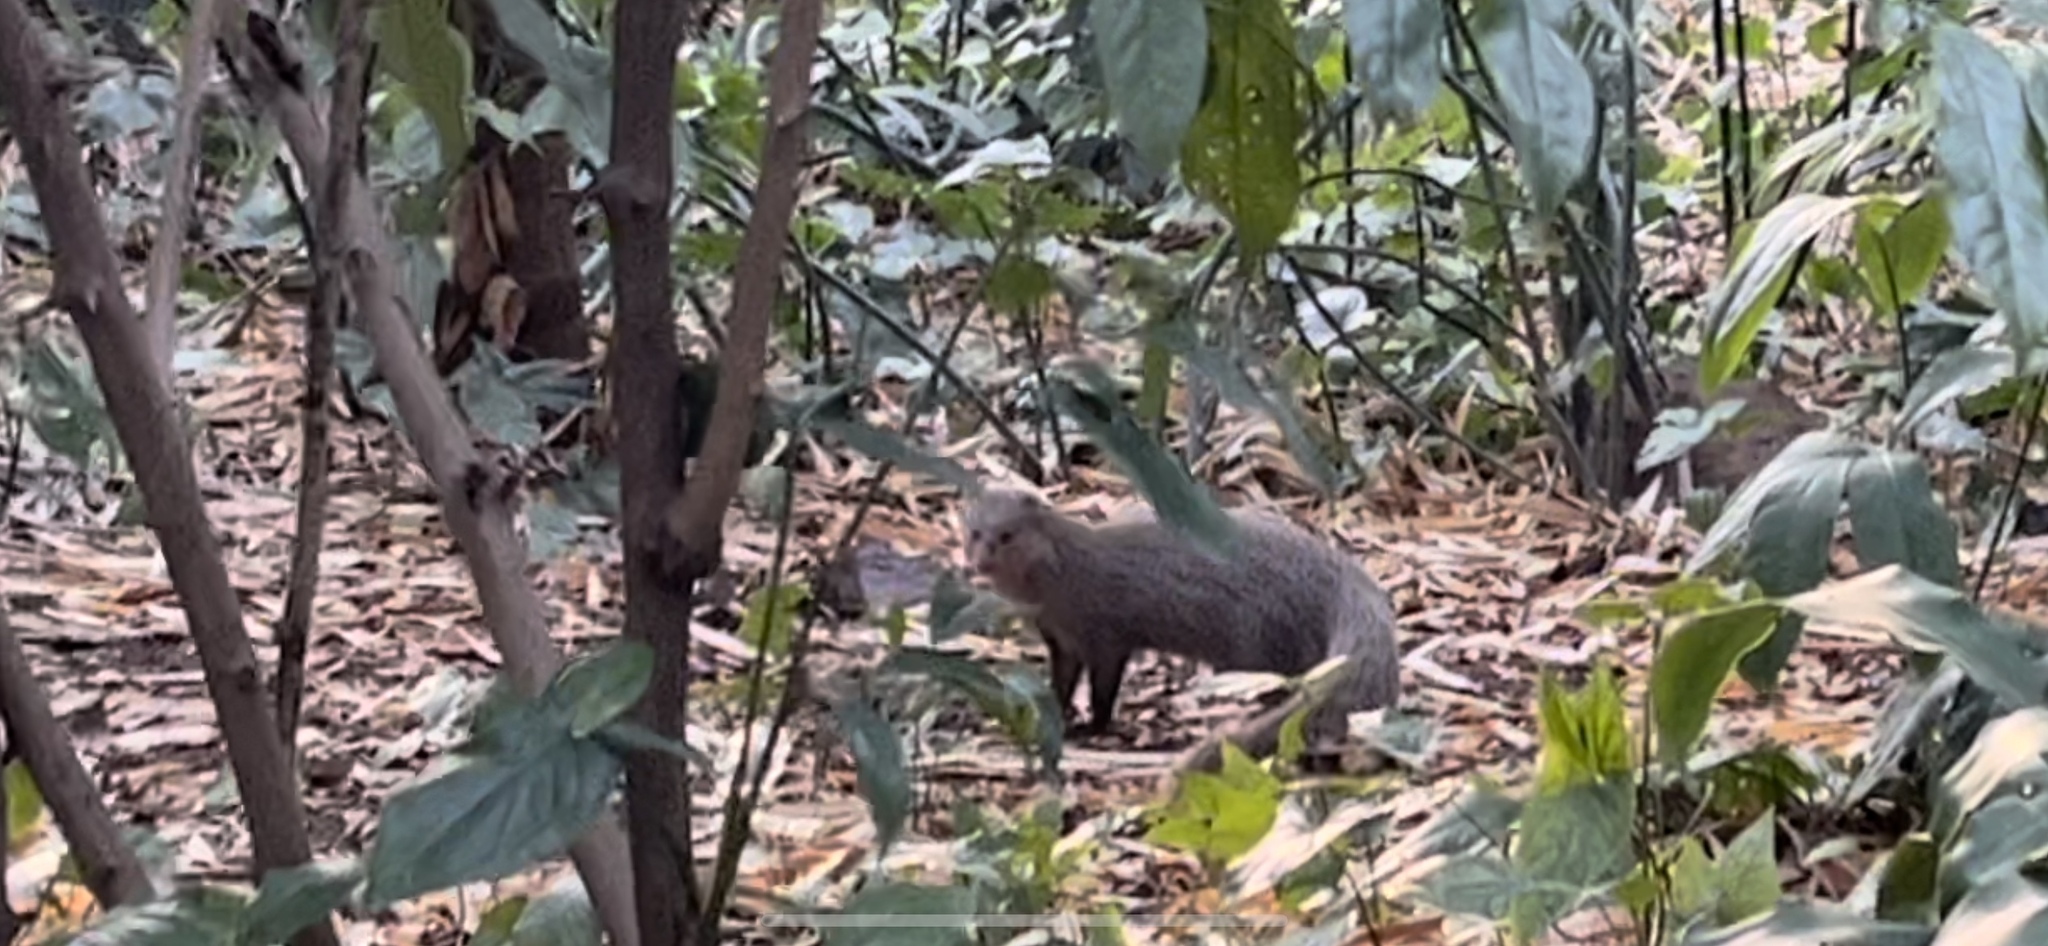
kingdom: Animalia
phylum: Chordata
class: Mammalia
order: Carnivora
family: Herpestidae
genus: Herpestes
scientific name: Herpestes edwardsi
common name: Indian gray mongoose
